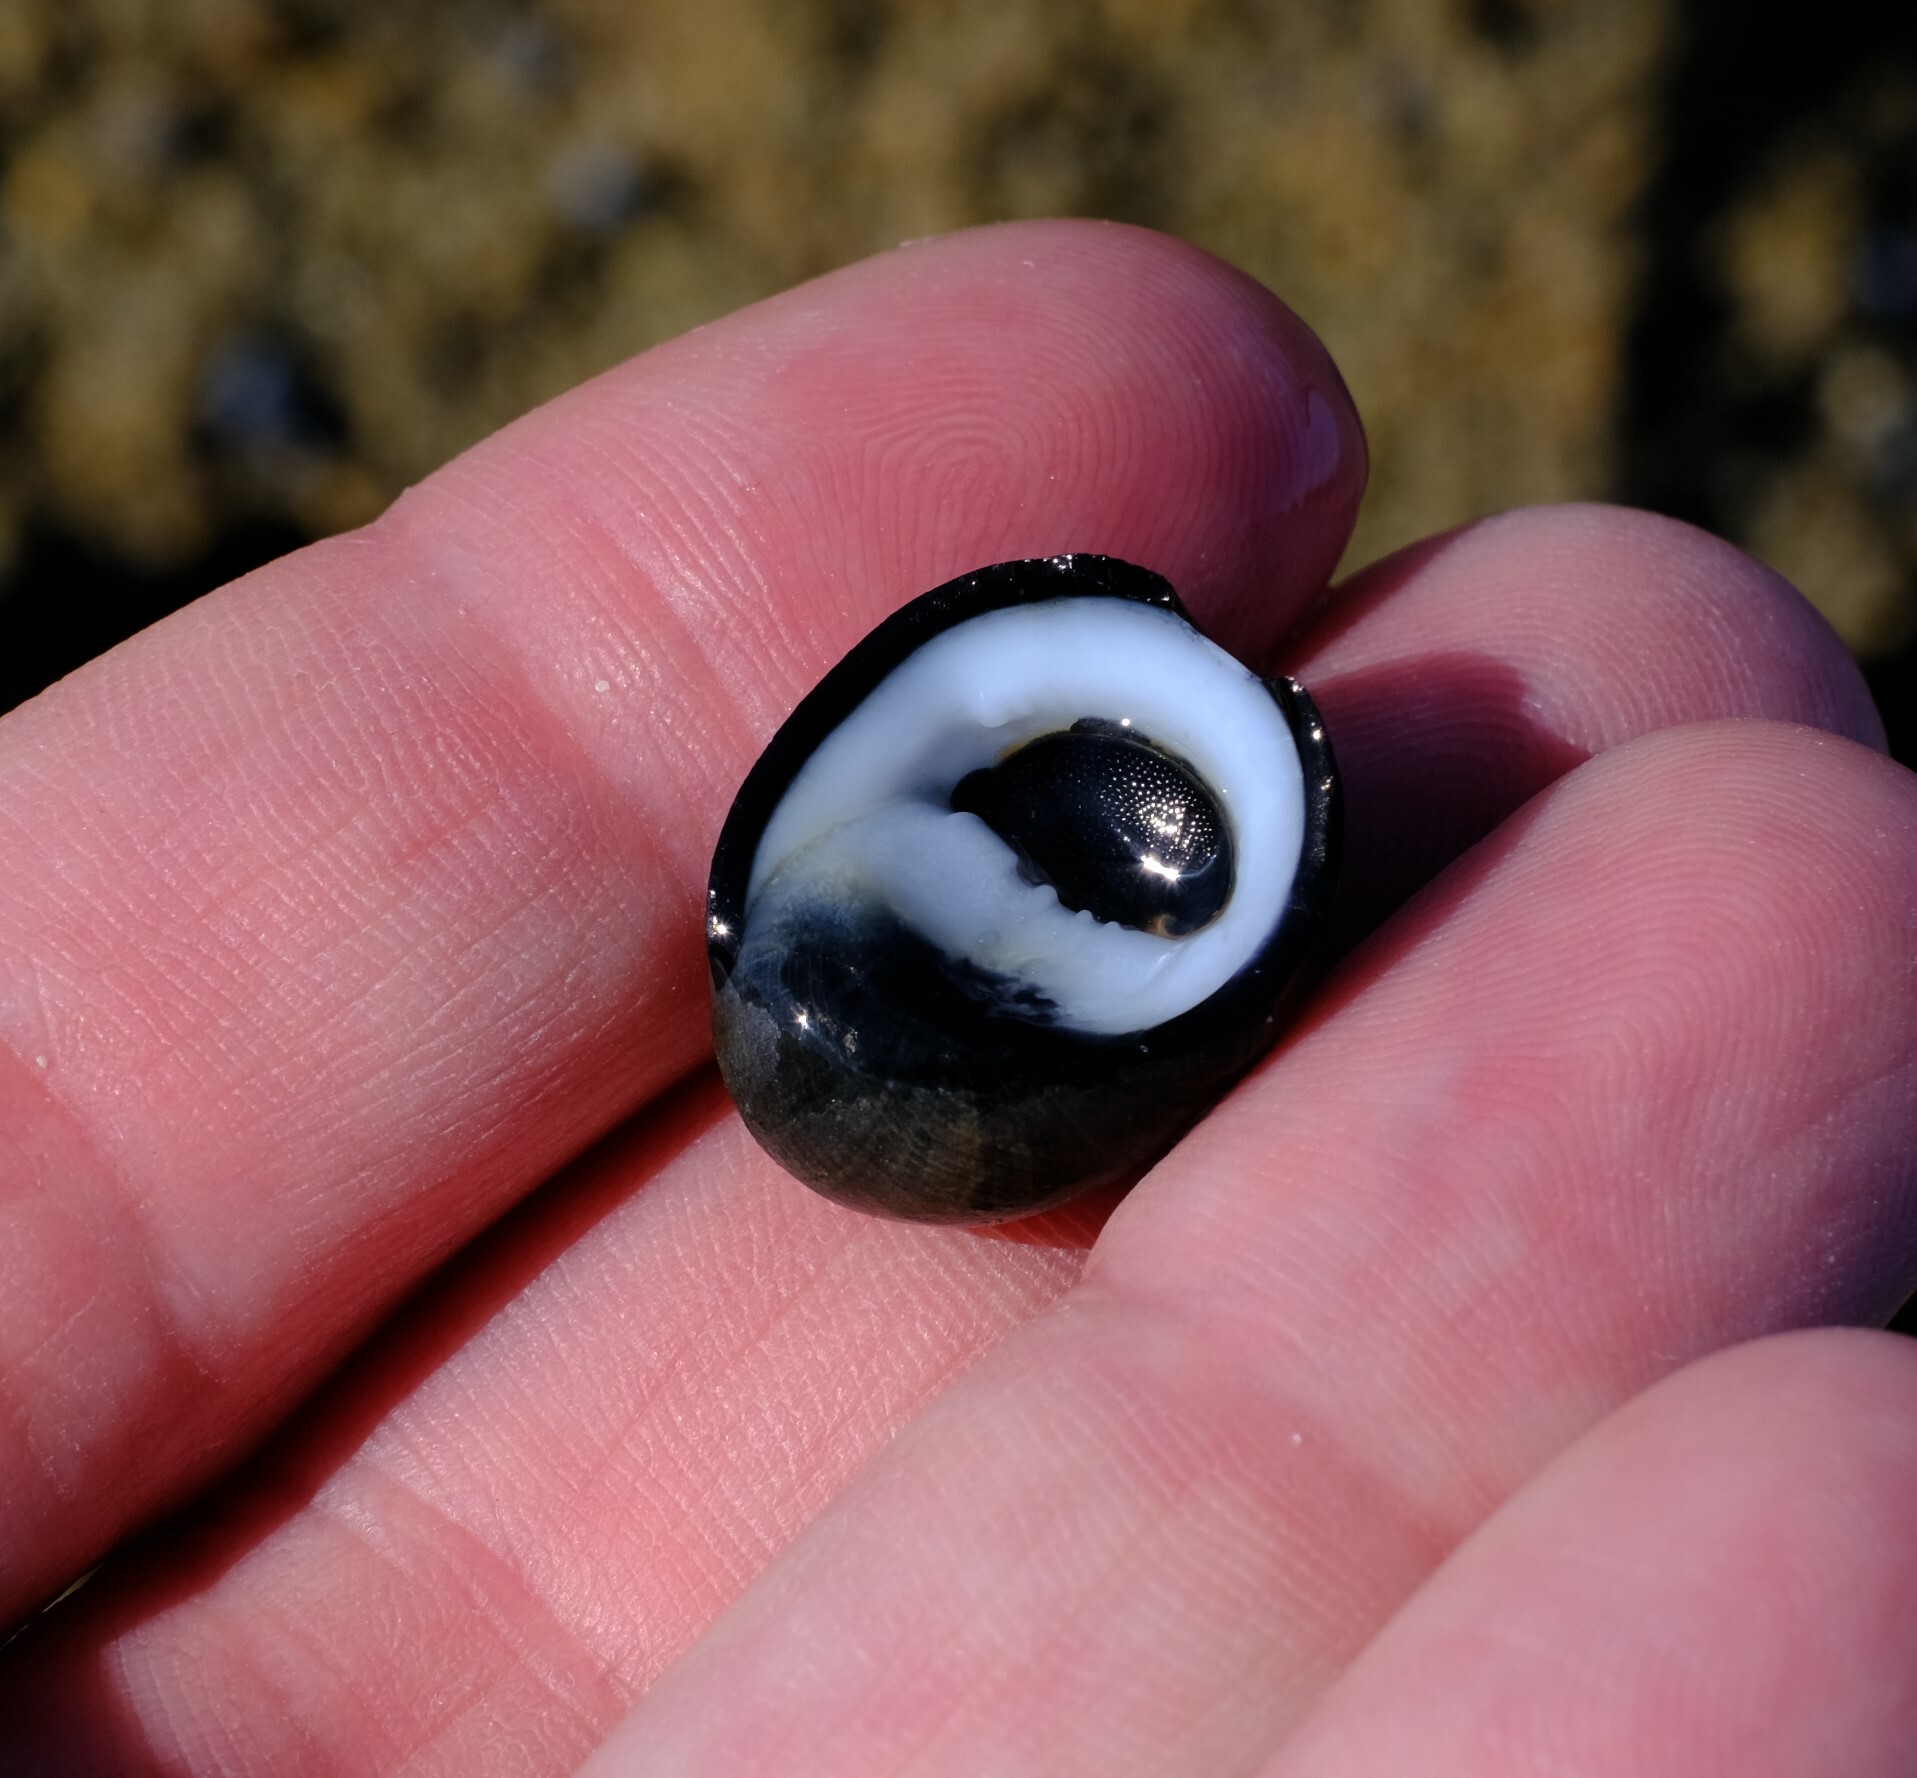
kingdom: Animalia
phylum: Mollusca
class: Gastropoda
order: Cycloneritida
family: Neritidae
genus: Nerita
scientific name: Nerita atramentosa
